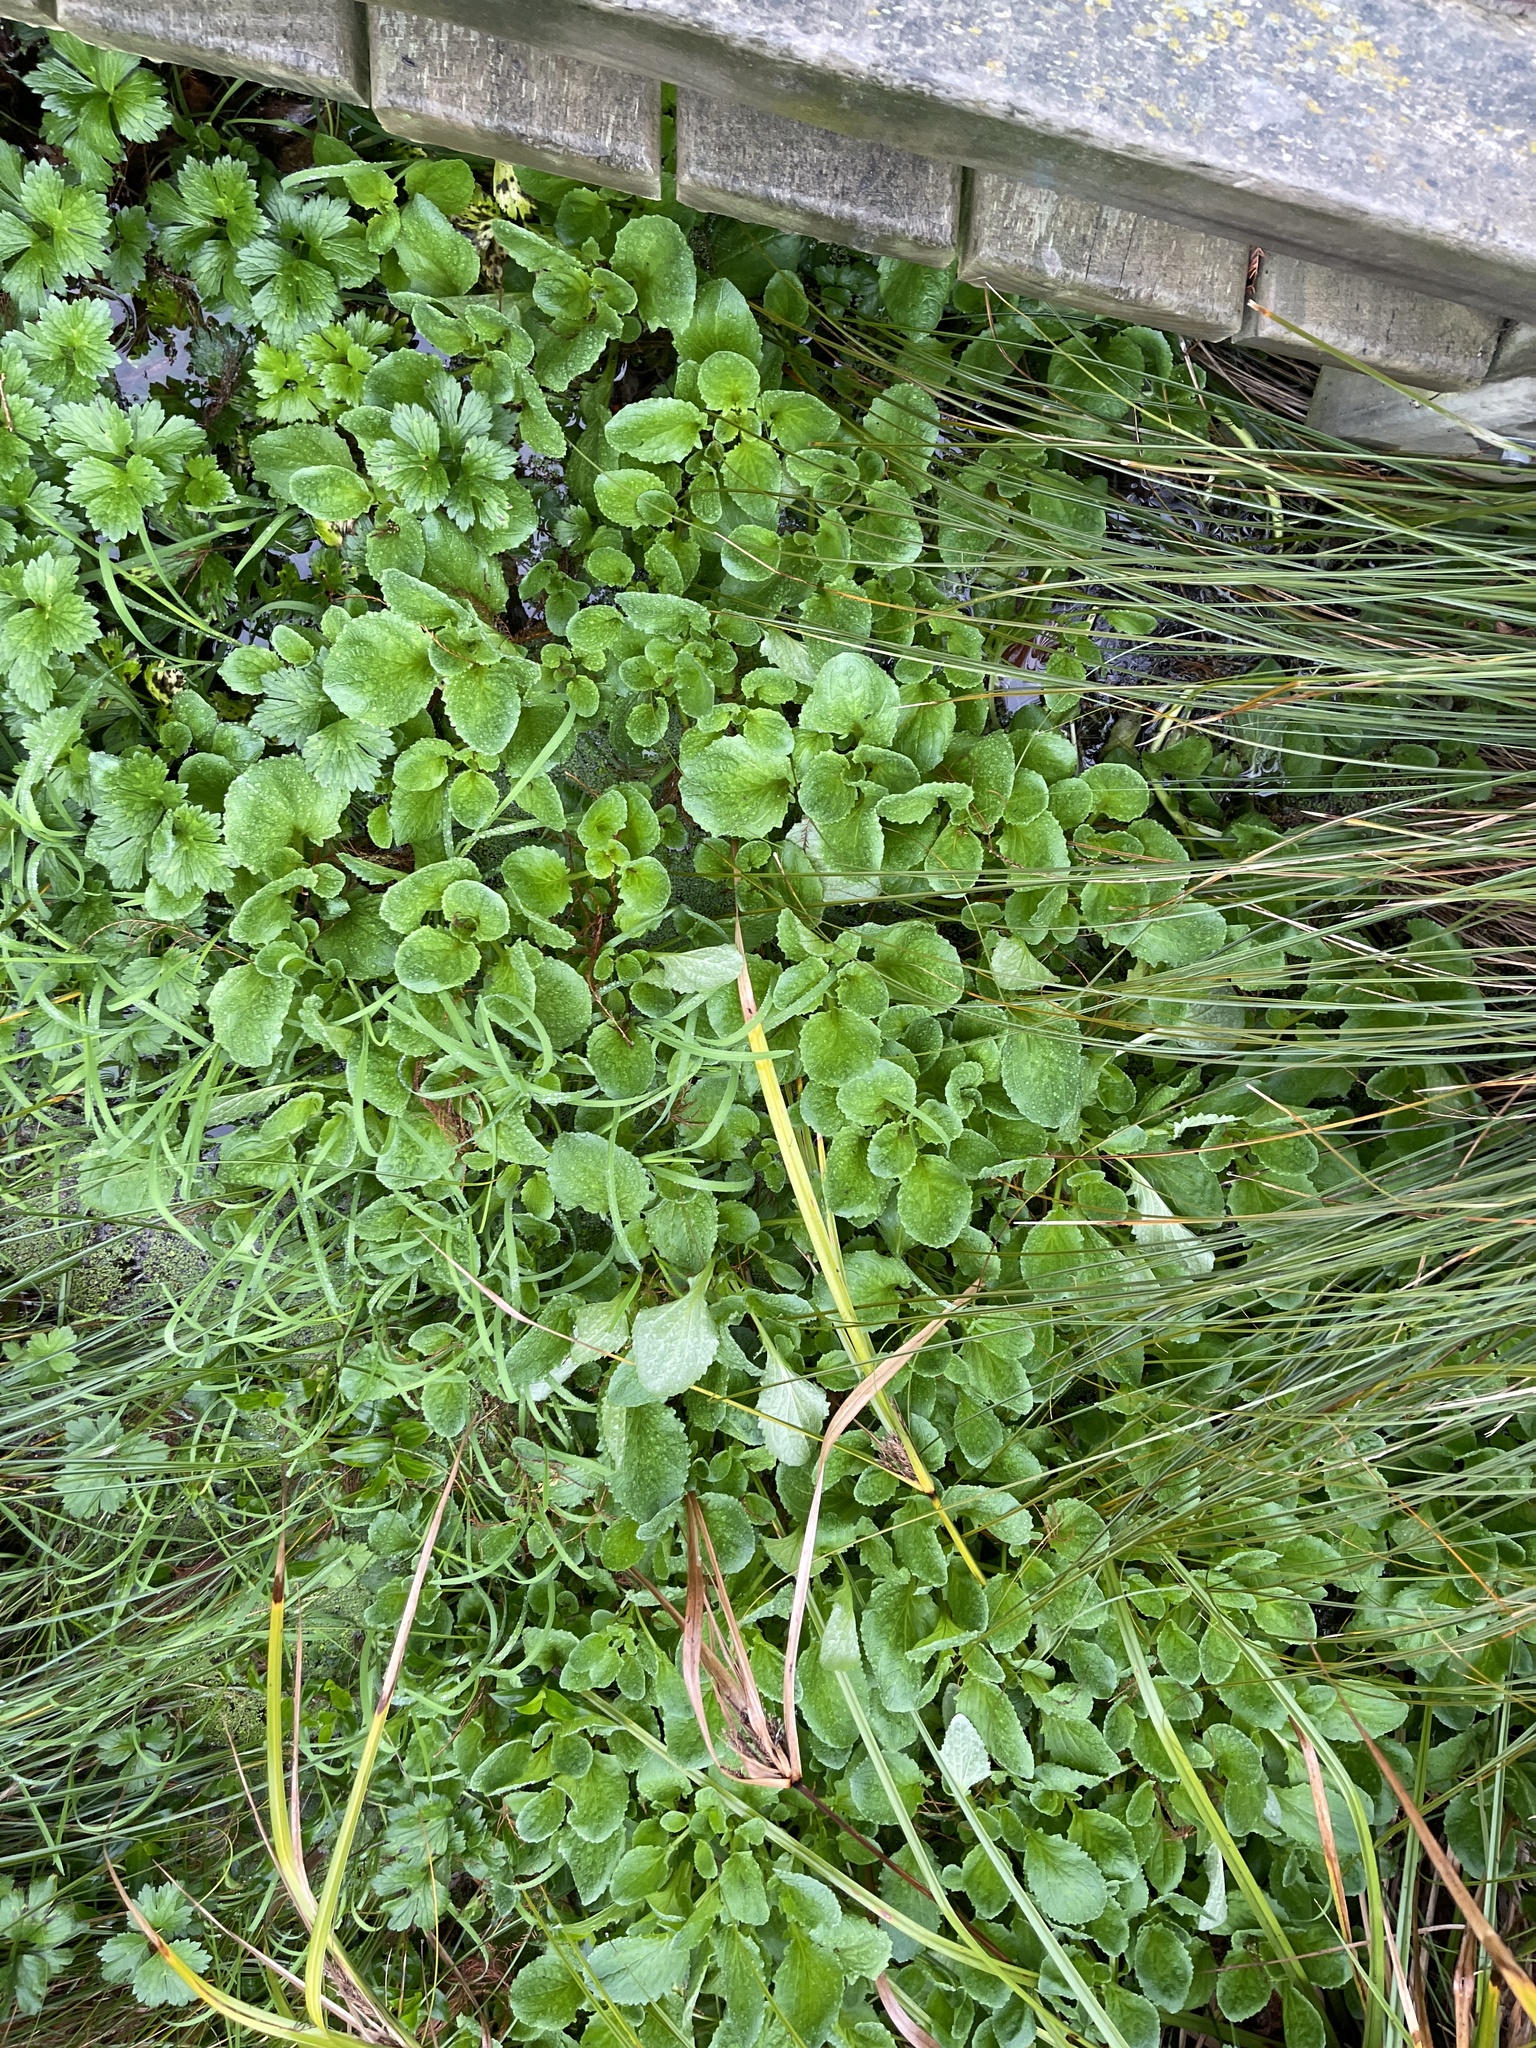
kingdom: Plantae
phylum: Tracheophyta
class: Magnoliopsida
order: Lamiales
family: Phrymaceae
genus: Erythranthe
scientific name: Erythranthe guttata
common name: Monkeyflower
